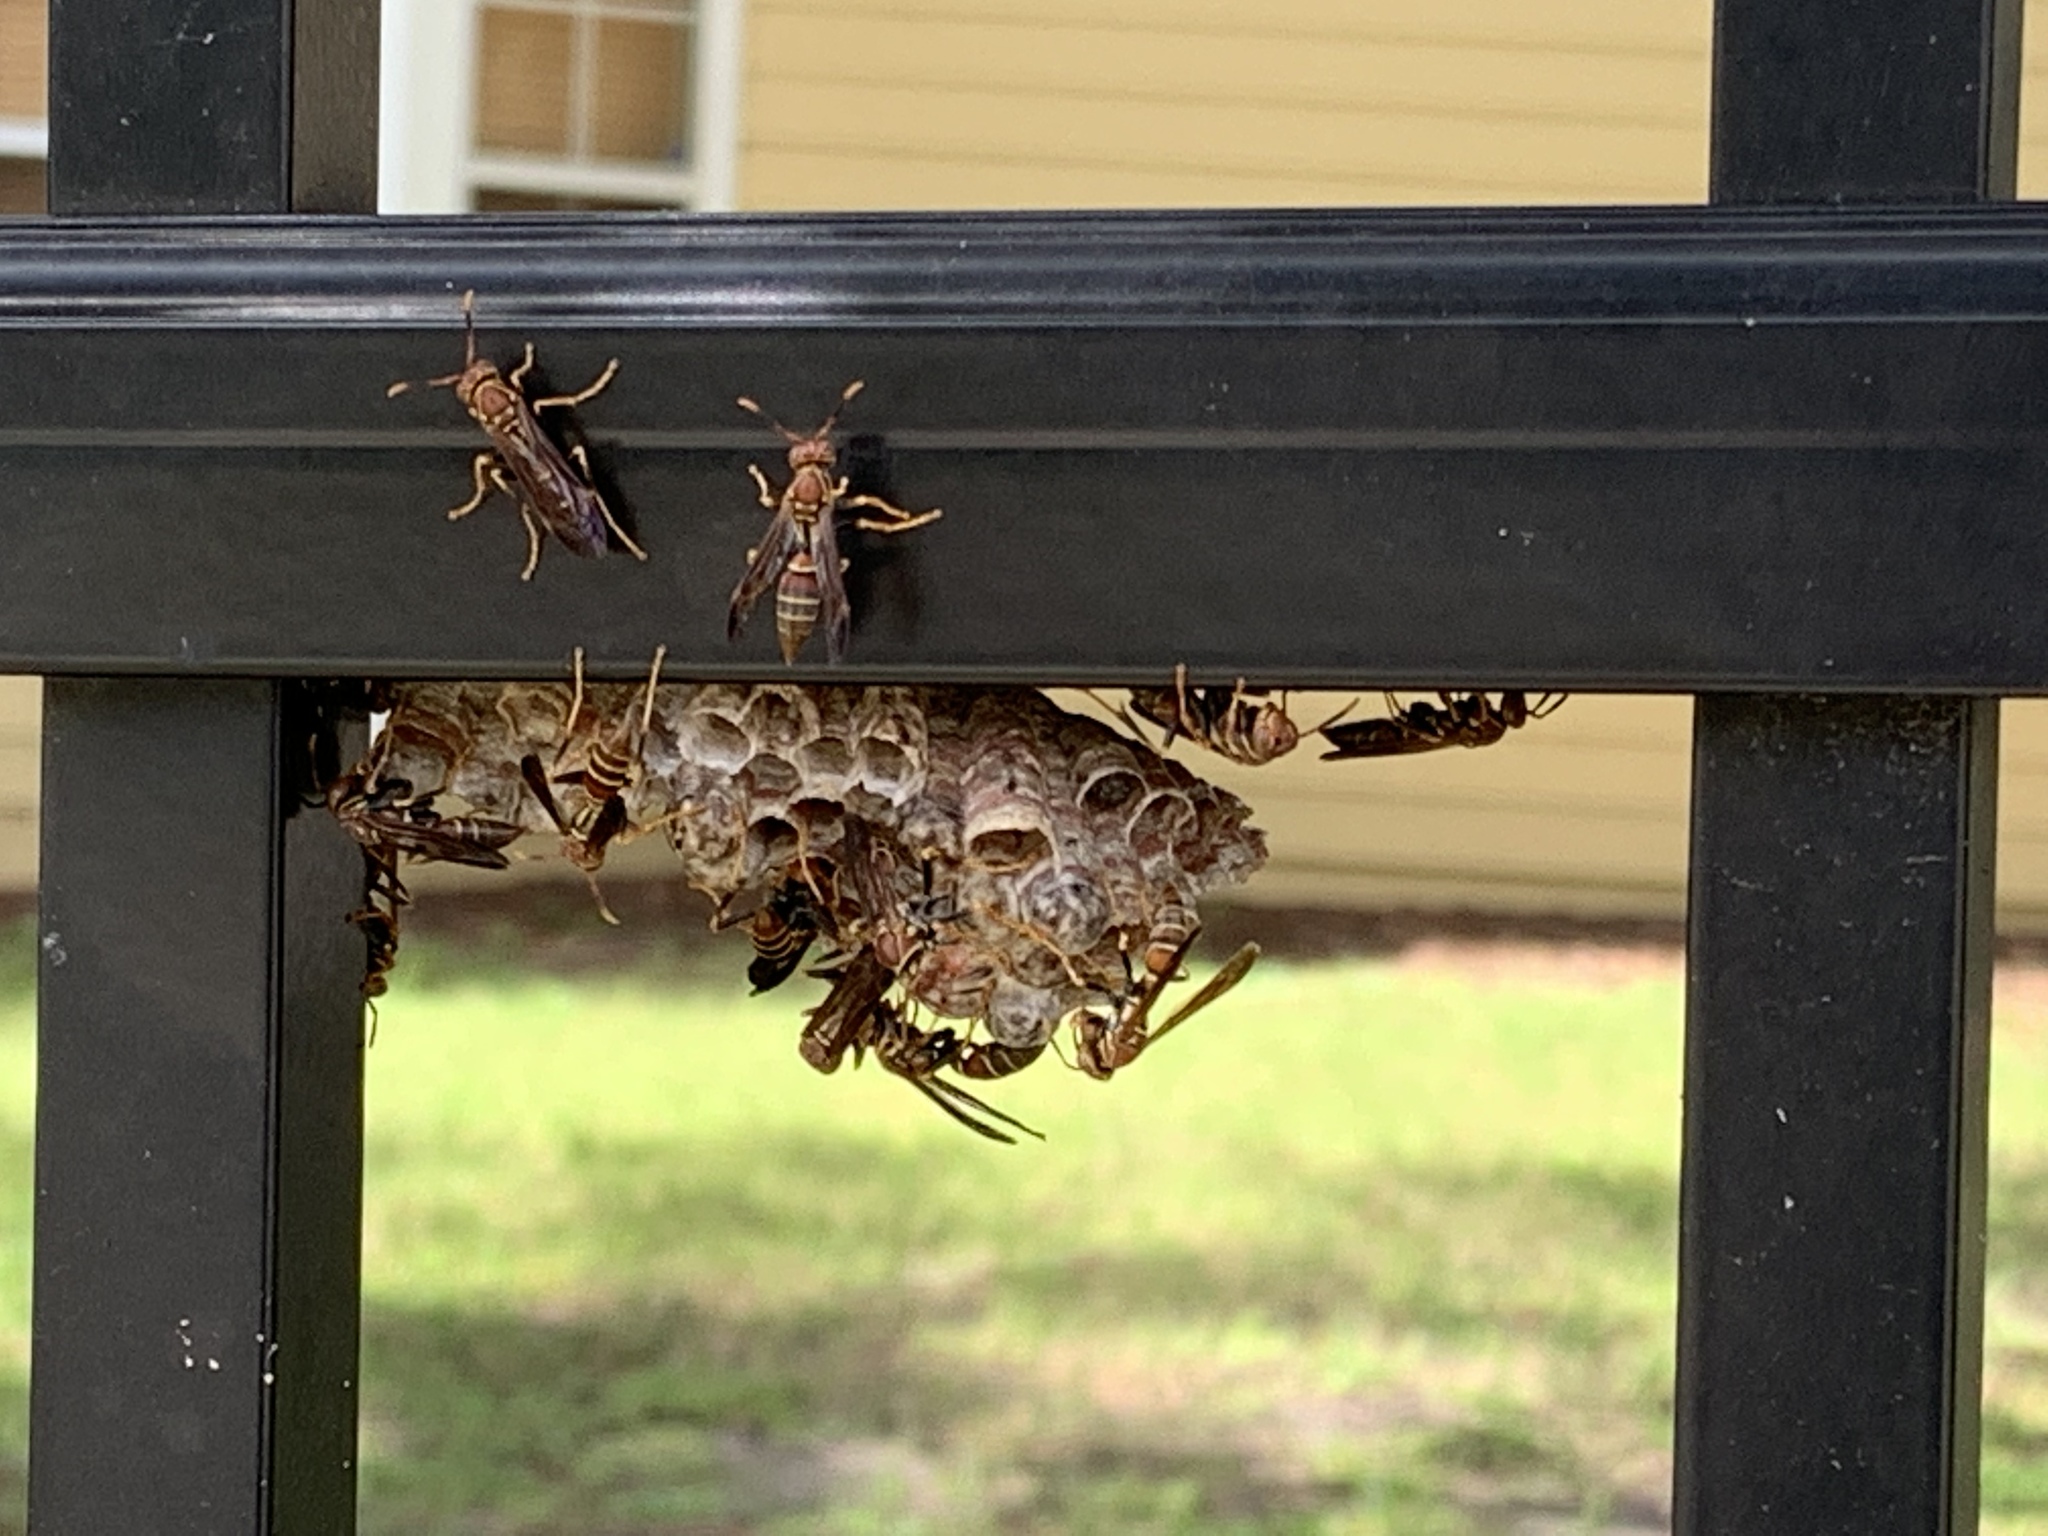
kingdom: Animalia
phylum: Arthropoda
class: Insecta
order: Hymenoptera
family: Pompilidae
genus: Aphanilopterus
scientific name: Aphanilopterus
